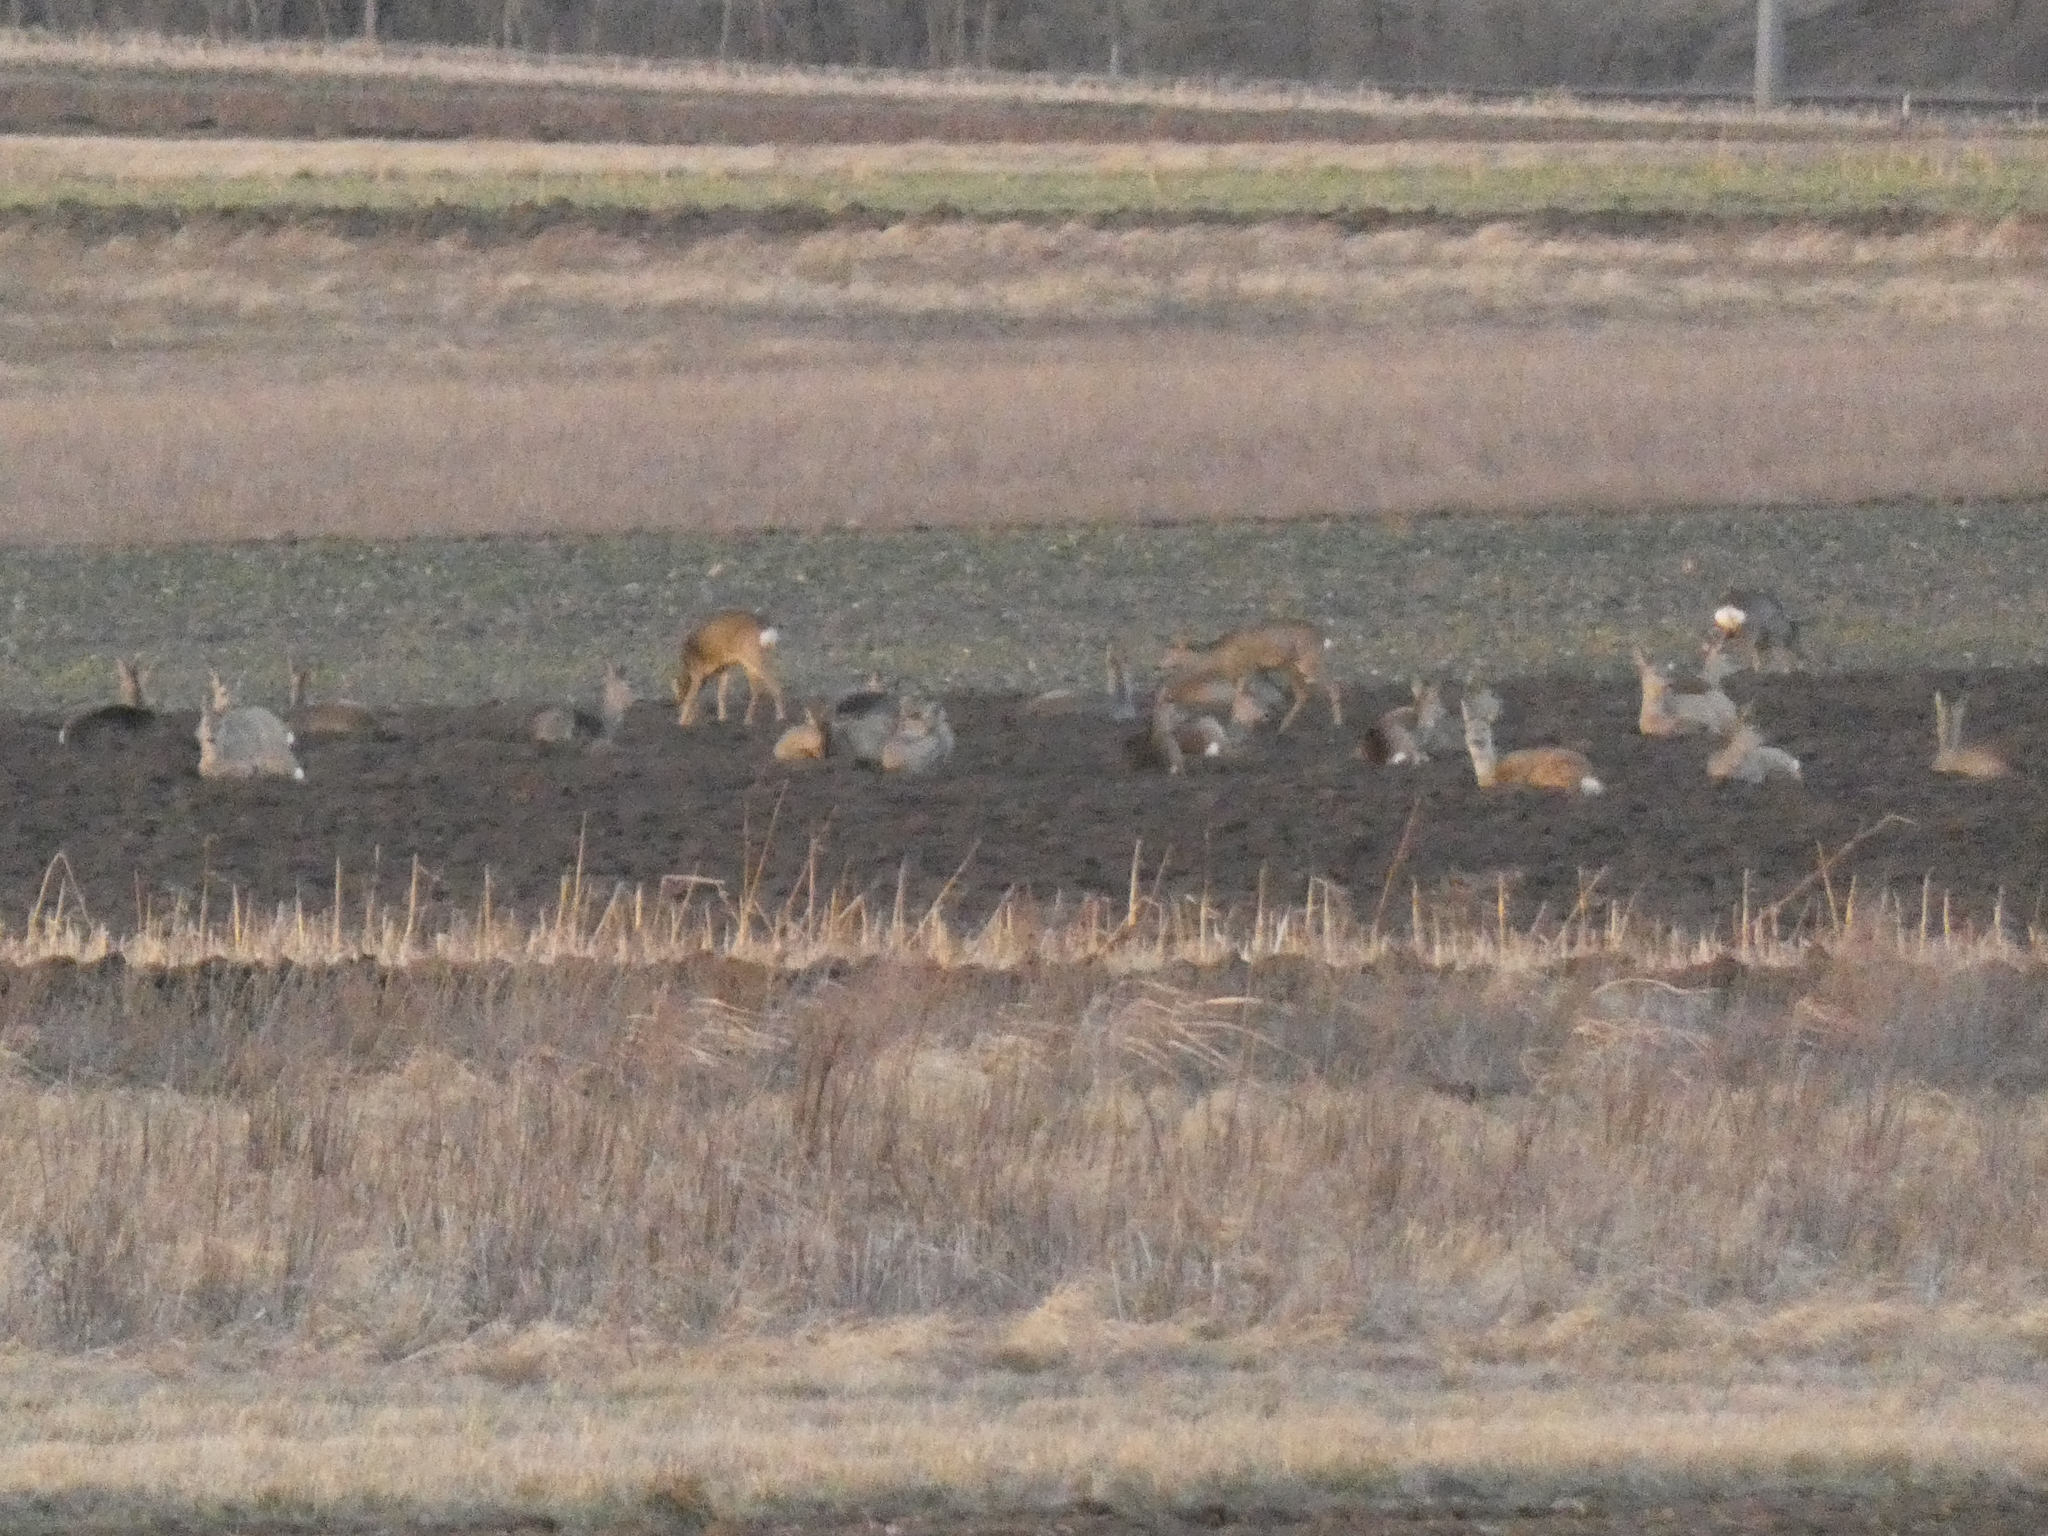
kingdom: Animalia
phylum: Chordata
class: Mammalia
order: Artiodactyla
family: Cervidae
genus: Capreolus
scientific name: Capreolus capreolus
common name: Western roe deer
